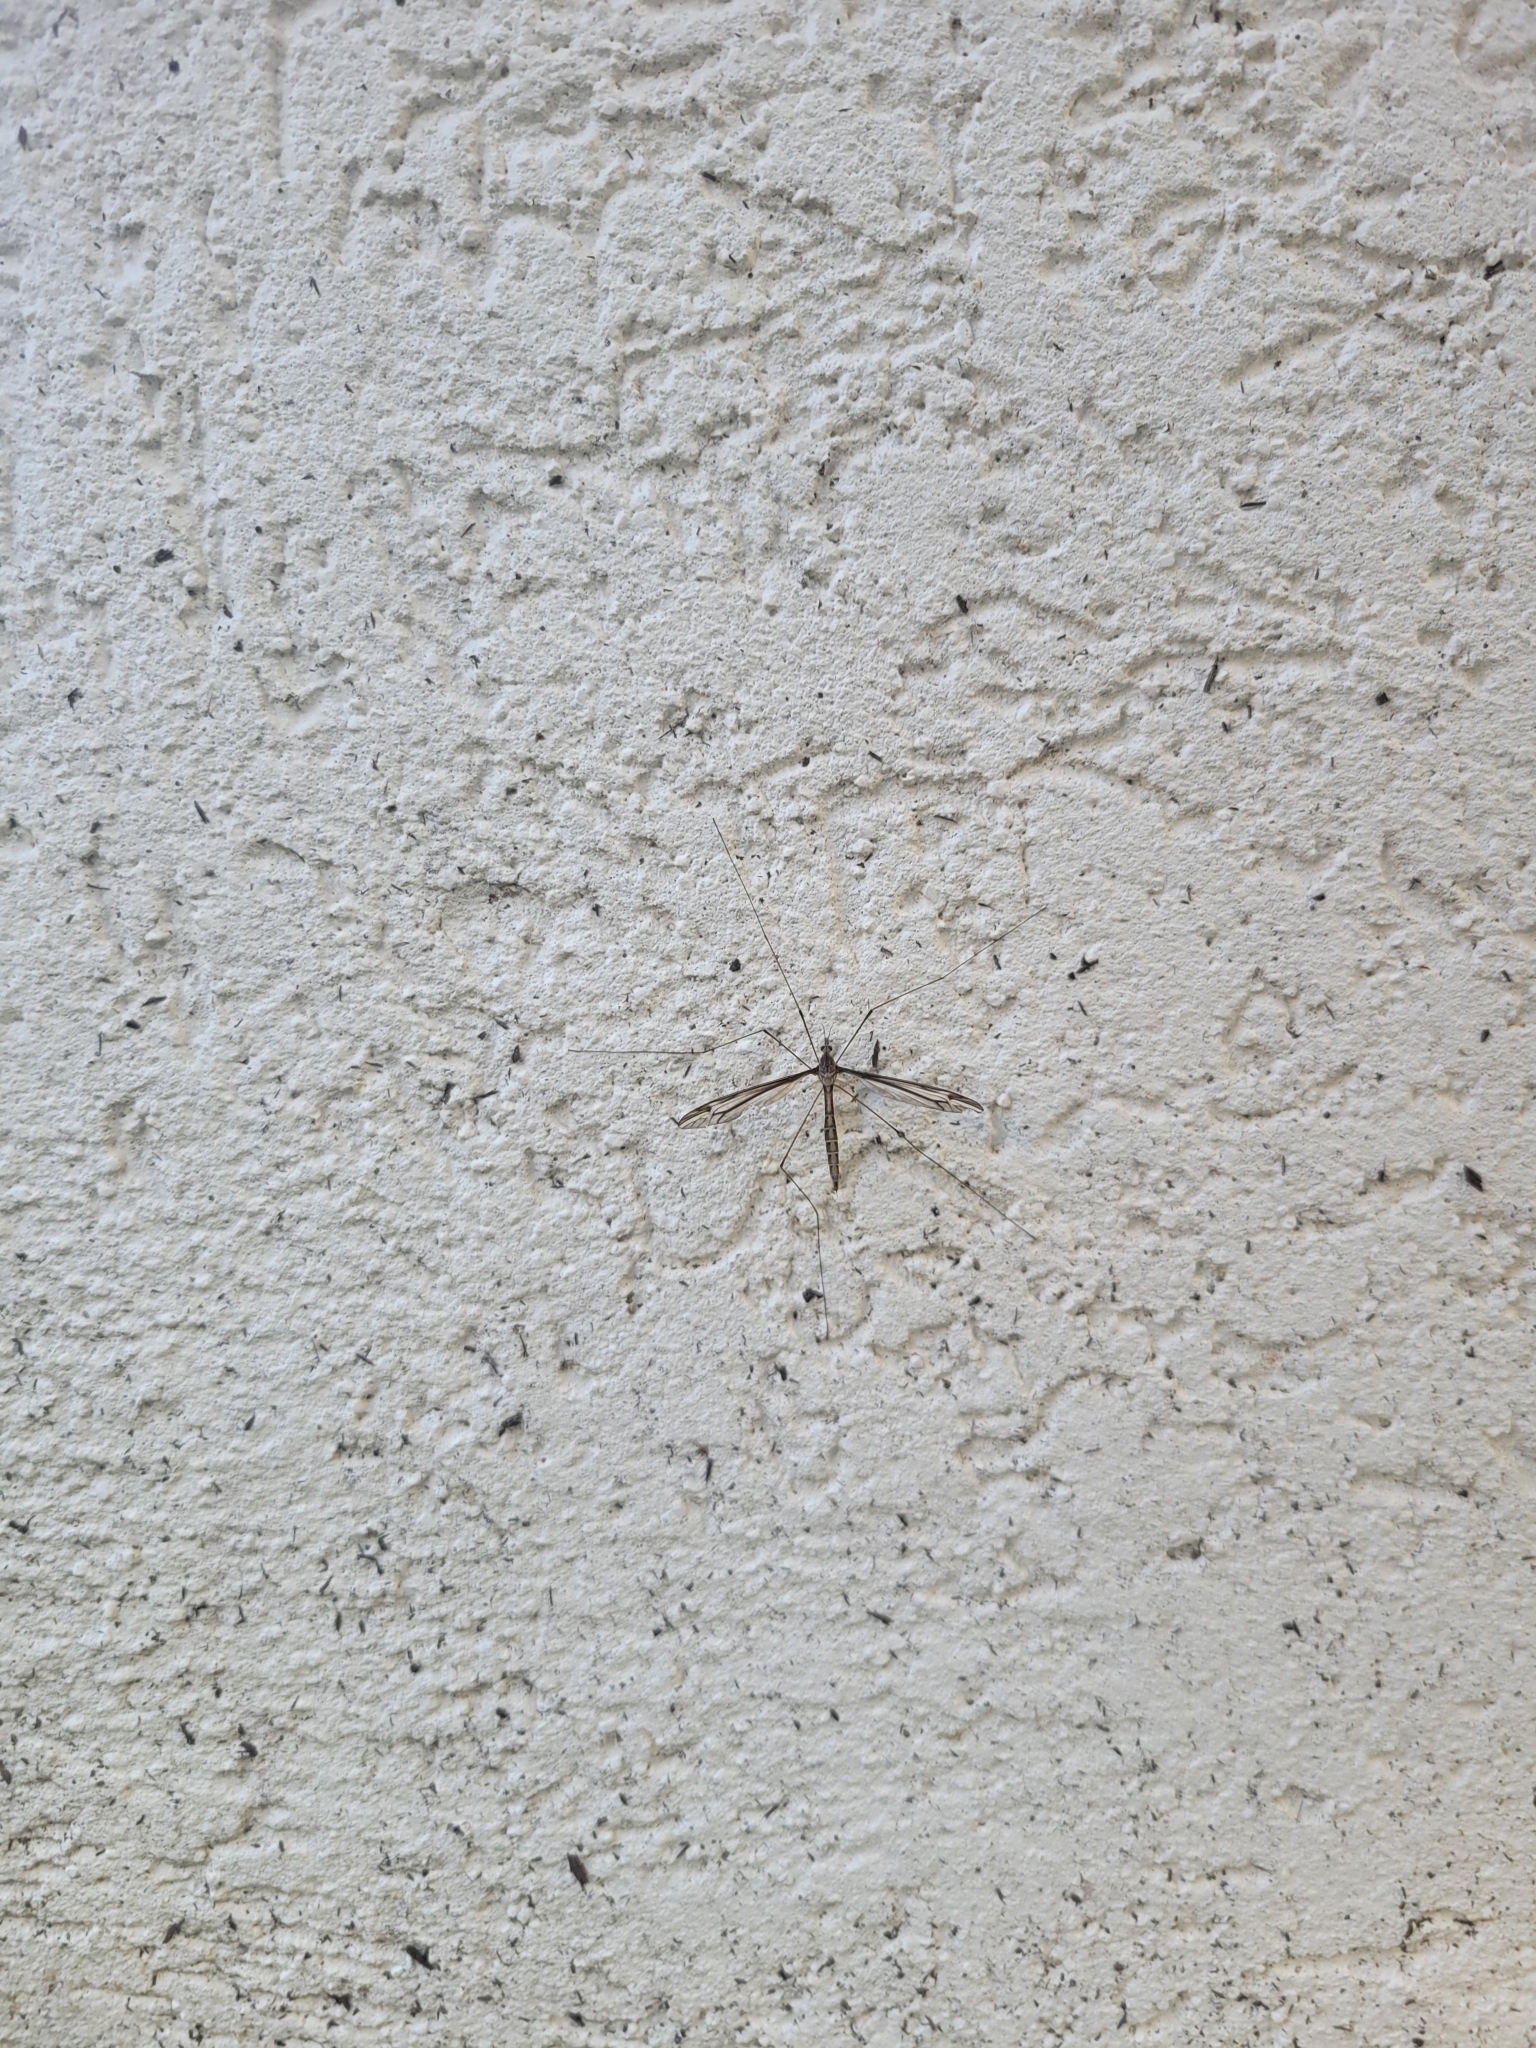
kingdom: Animalia
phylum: Arthropoda
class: Insecta
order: Diptera
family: Tipulidae
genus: Tipula
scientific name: Tipula furca
